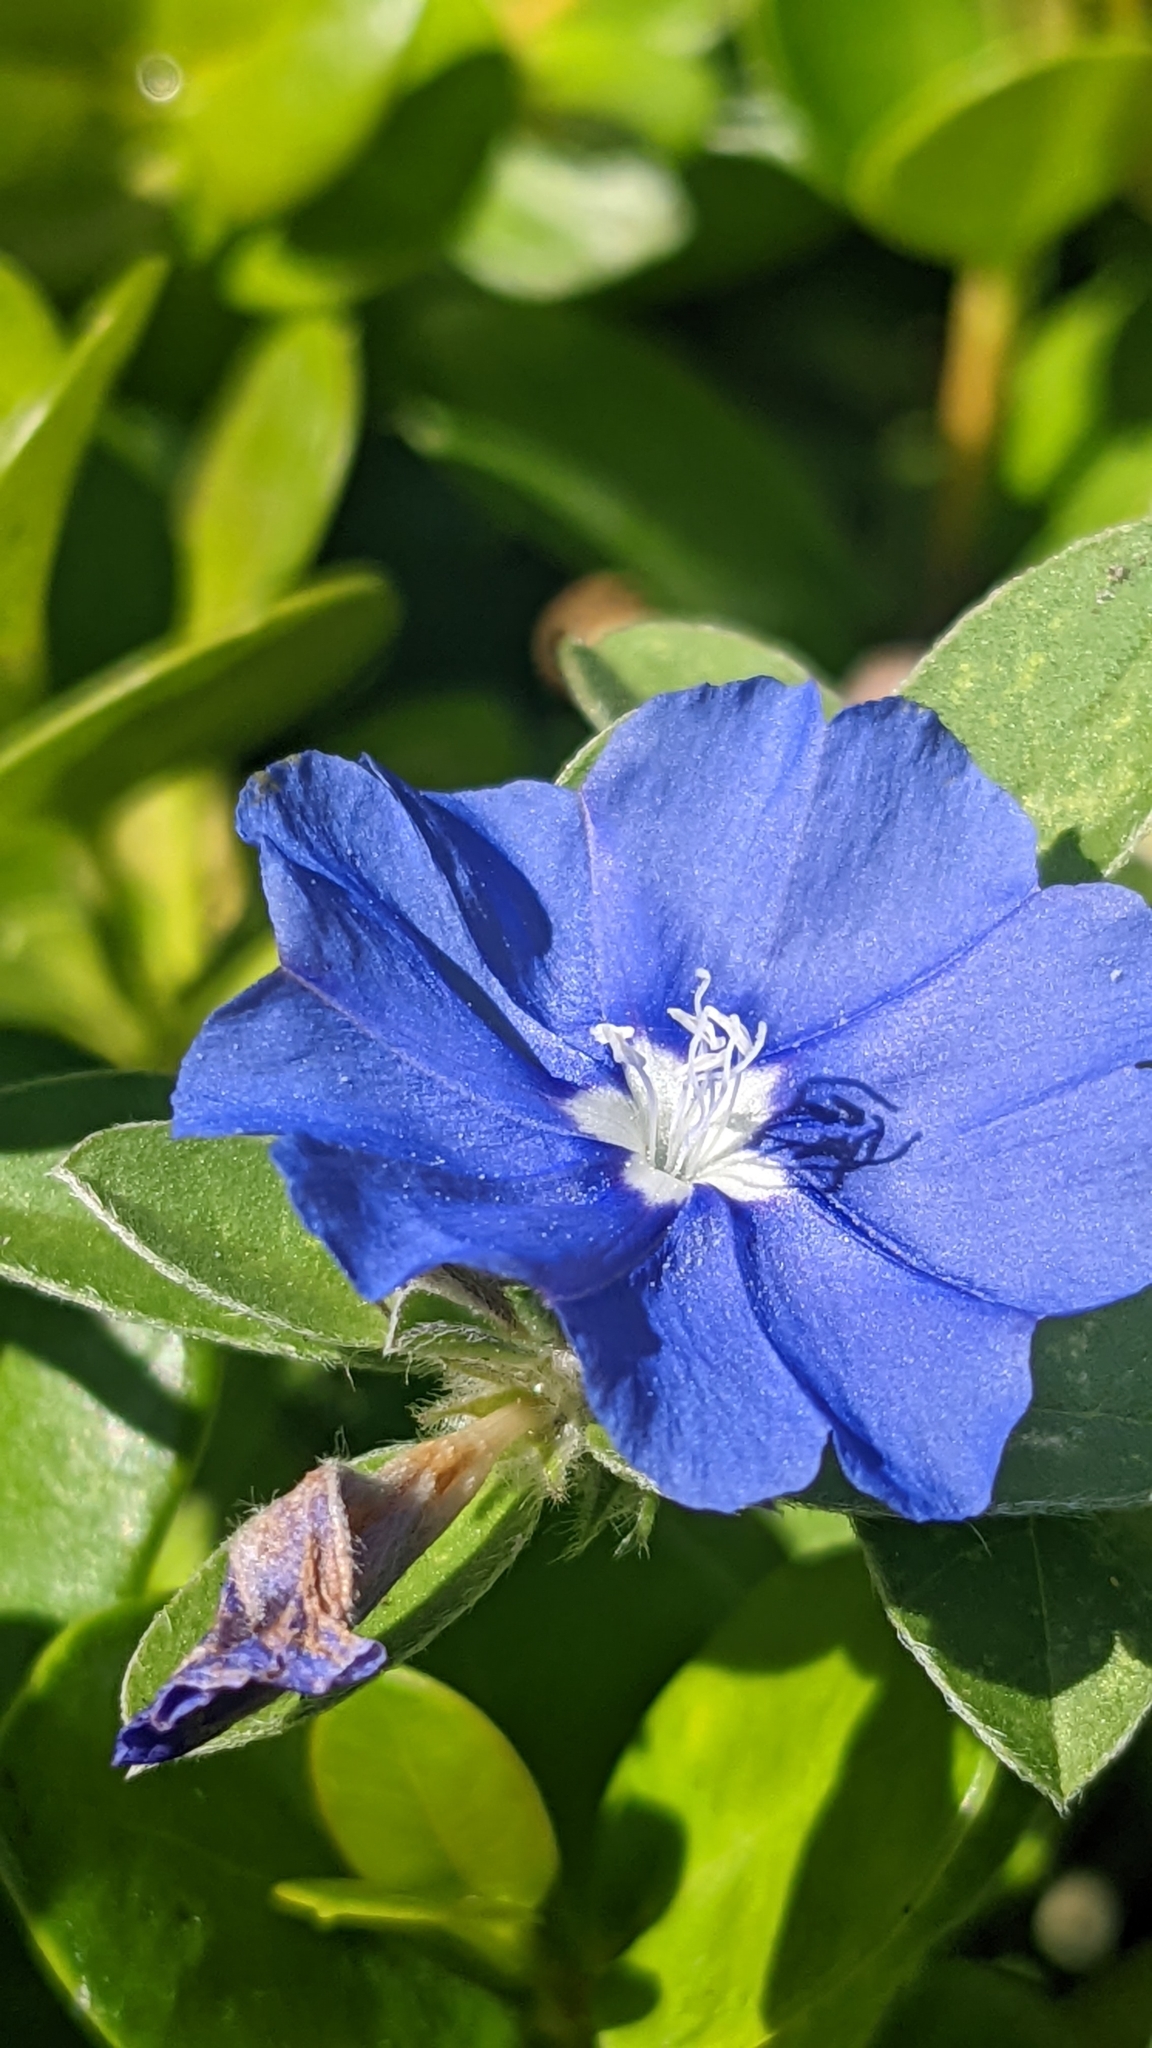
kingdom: Plantae
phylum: Tracheophyta
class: Magnoliopsida
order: Solanales
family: Convolvulaceae
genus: Evolvulus
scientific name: Evolvulus glomeratus
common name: Brazilian dwarf morning-glory
